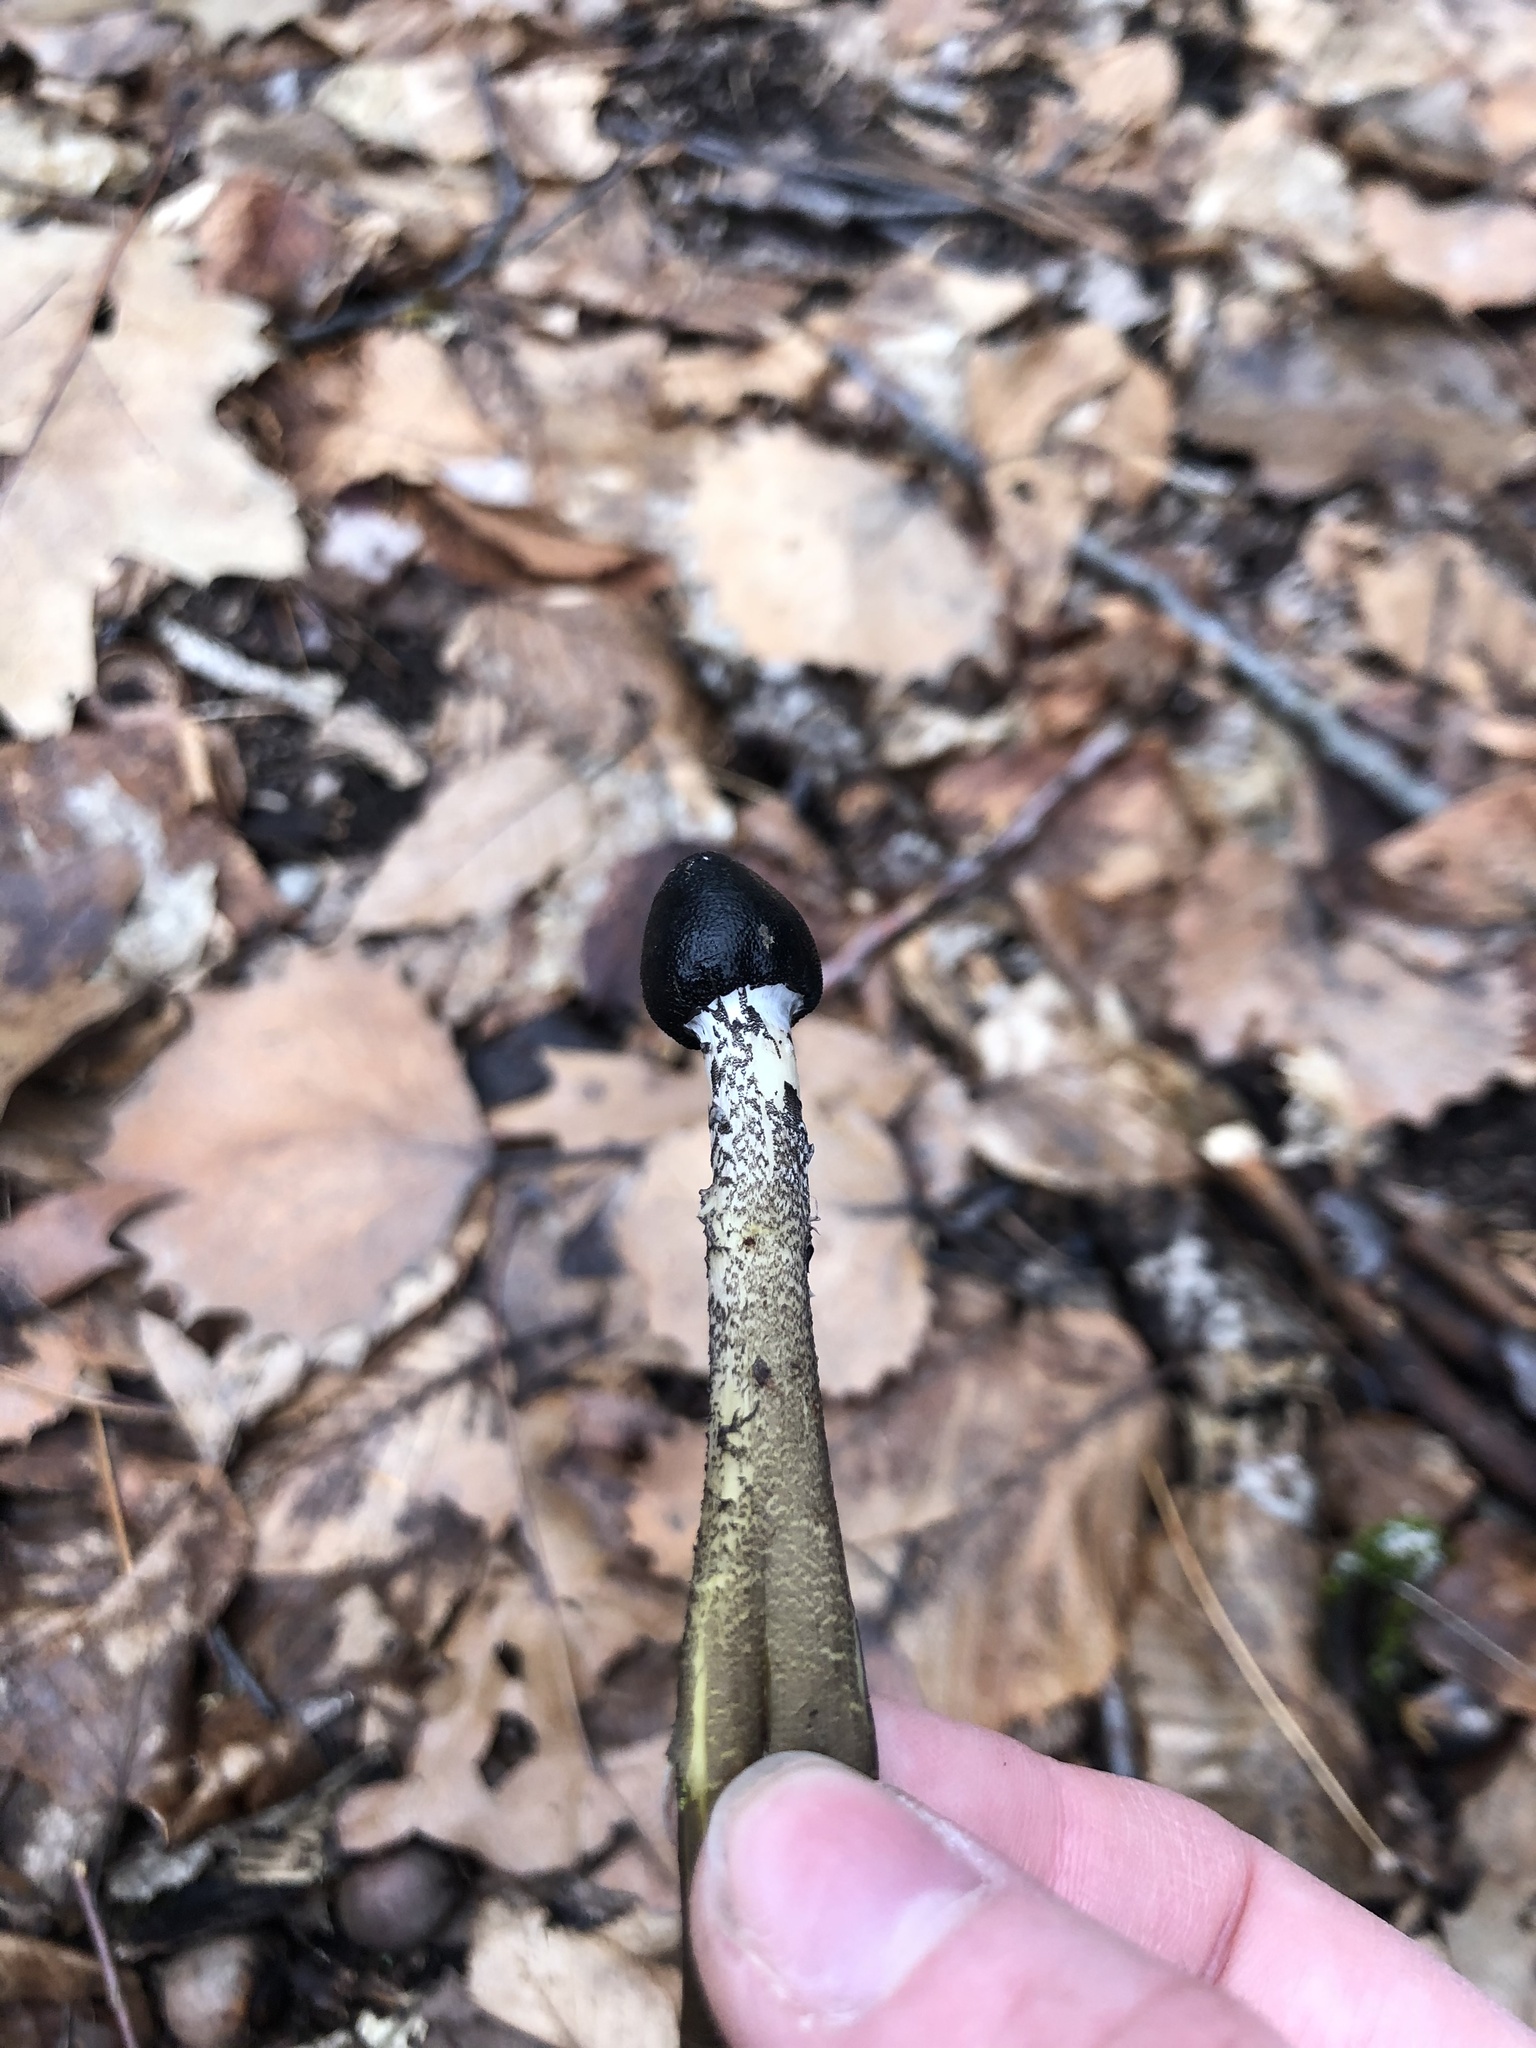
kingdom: Fungi
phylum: Ascomycota
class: Sordariomycetes
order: Hypocreales
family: Ophiocordycipitaceae
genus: Tolypocladium
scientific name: Tolypocladium capitatum
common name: Capitate truffleclub
